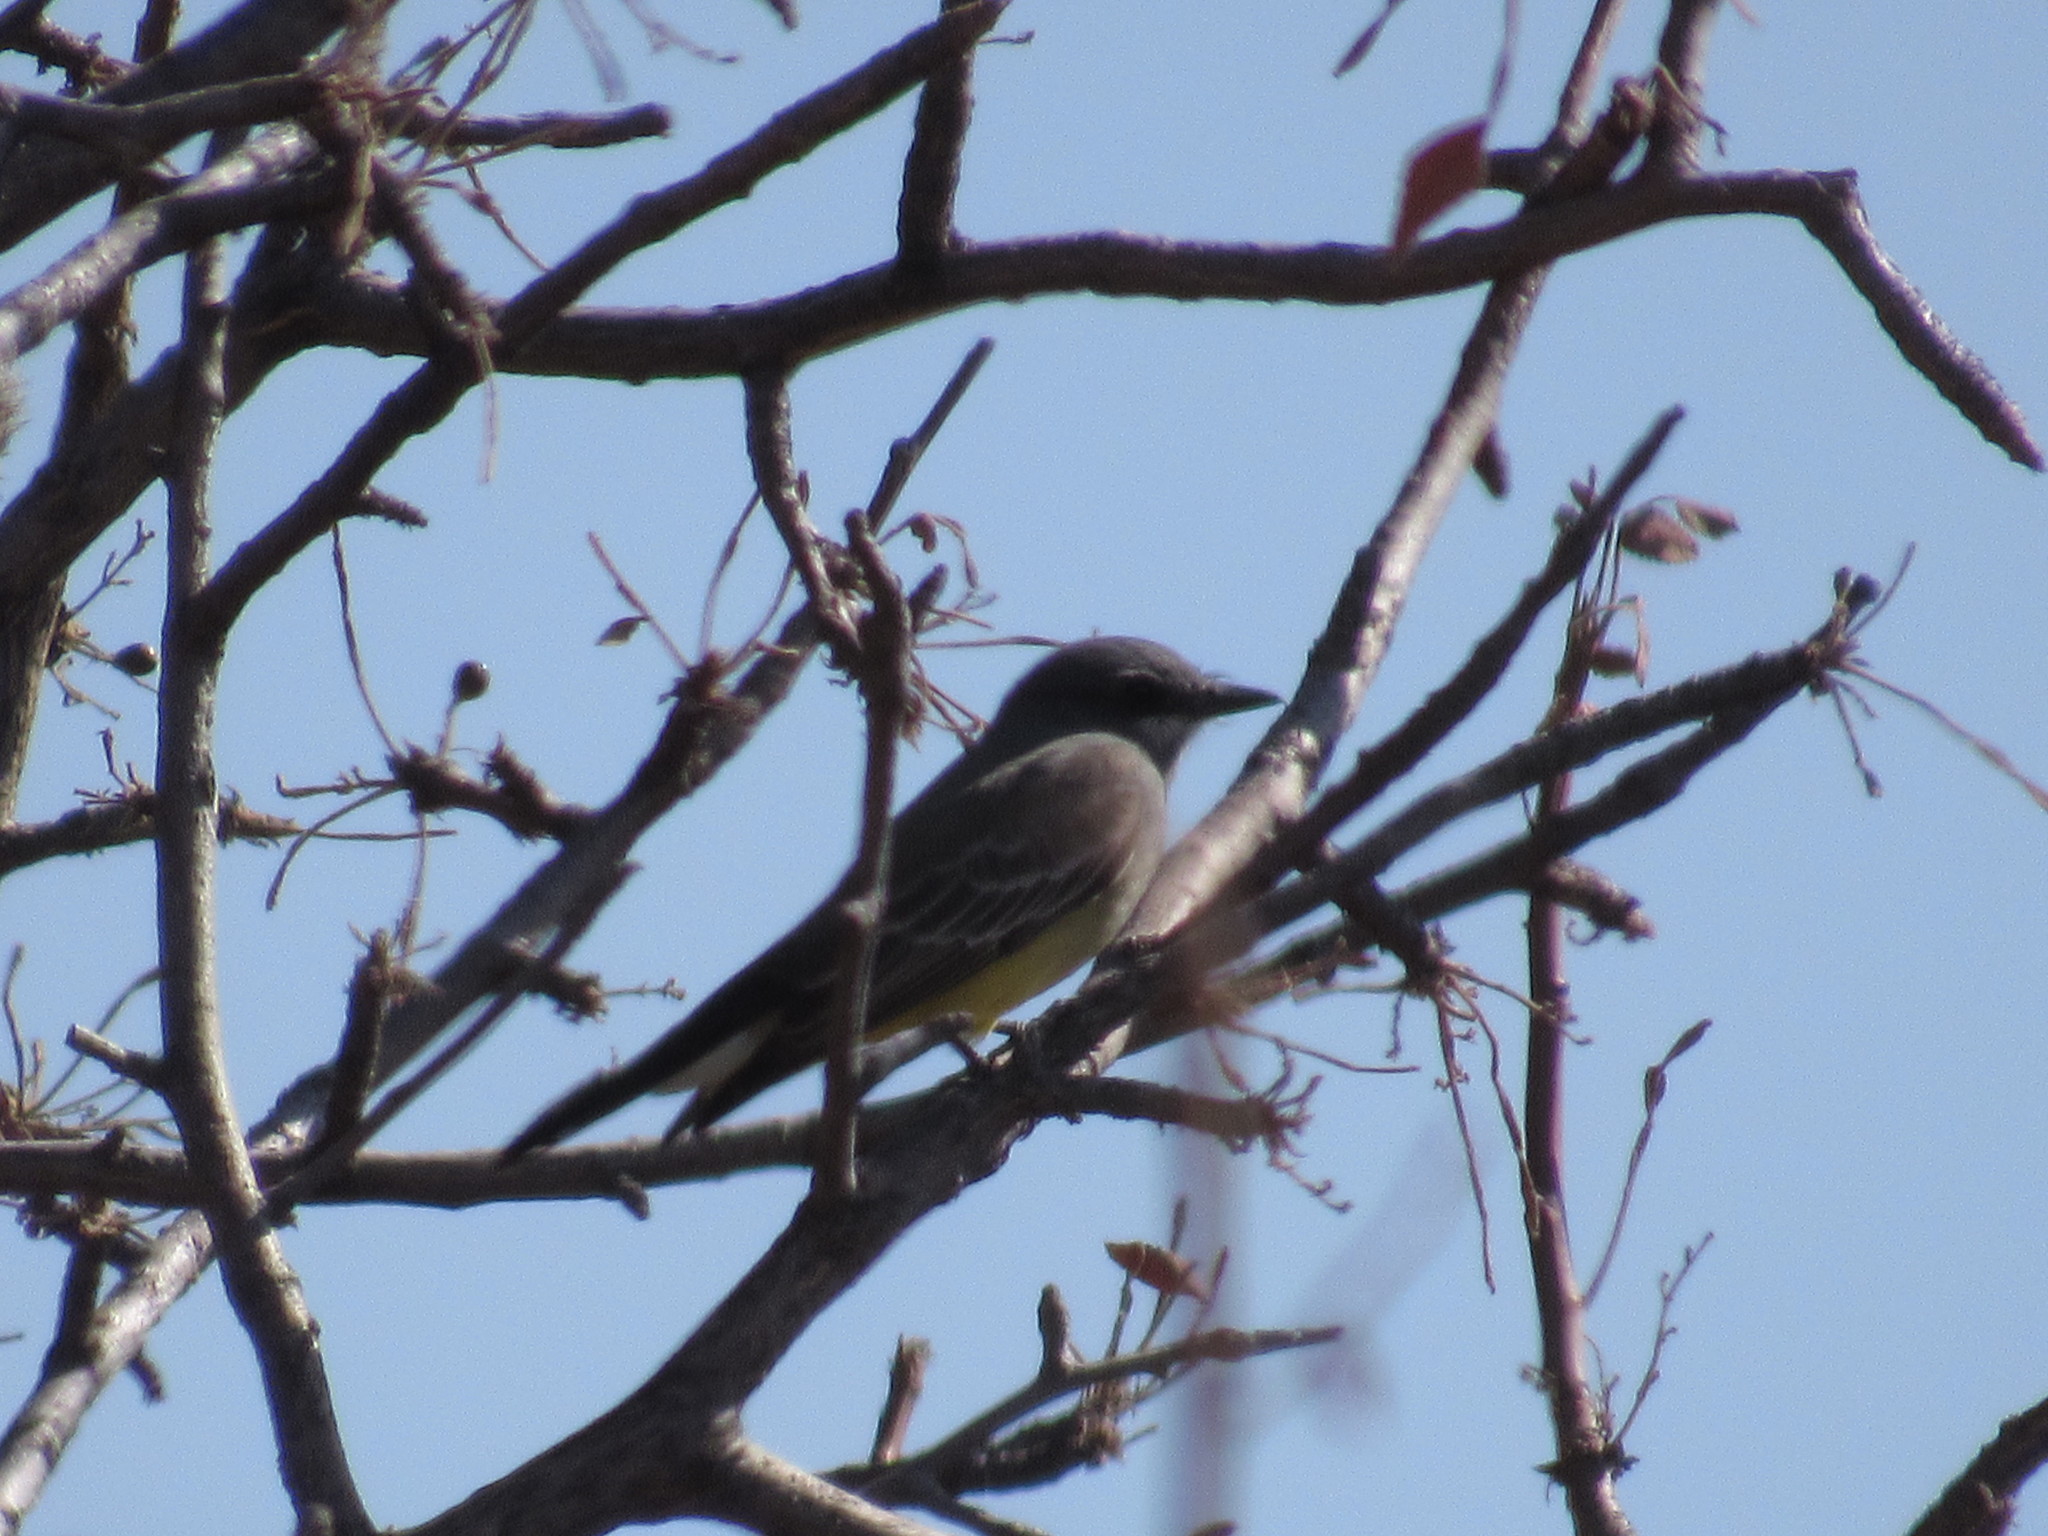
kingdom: Animalia
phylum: Chordata
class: Aves
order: Passeriformes
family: Tyrannidae
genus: Tyrannus
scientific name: Tyrannus vociferans
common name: Cassin's kingbird
